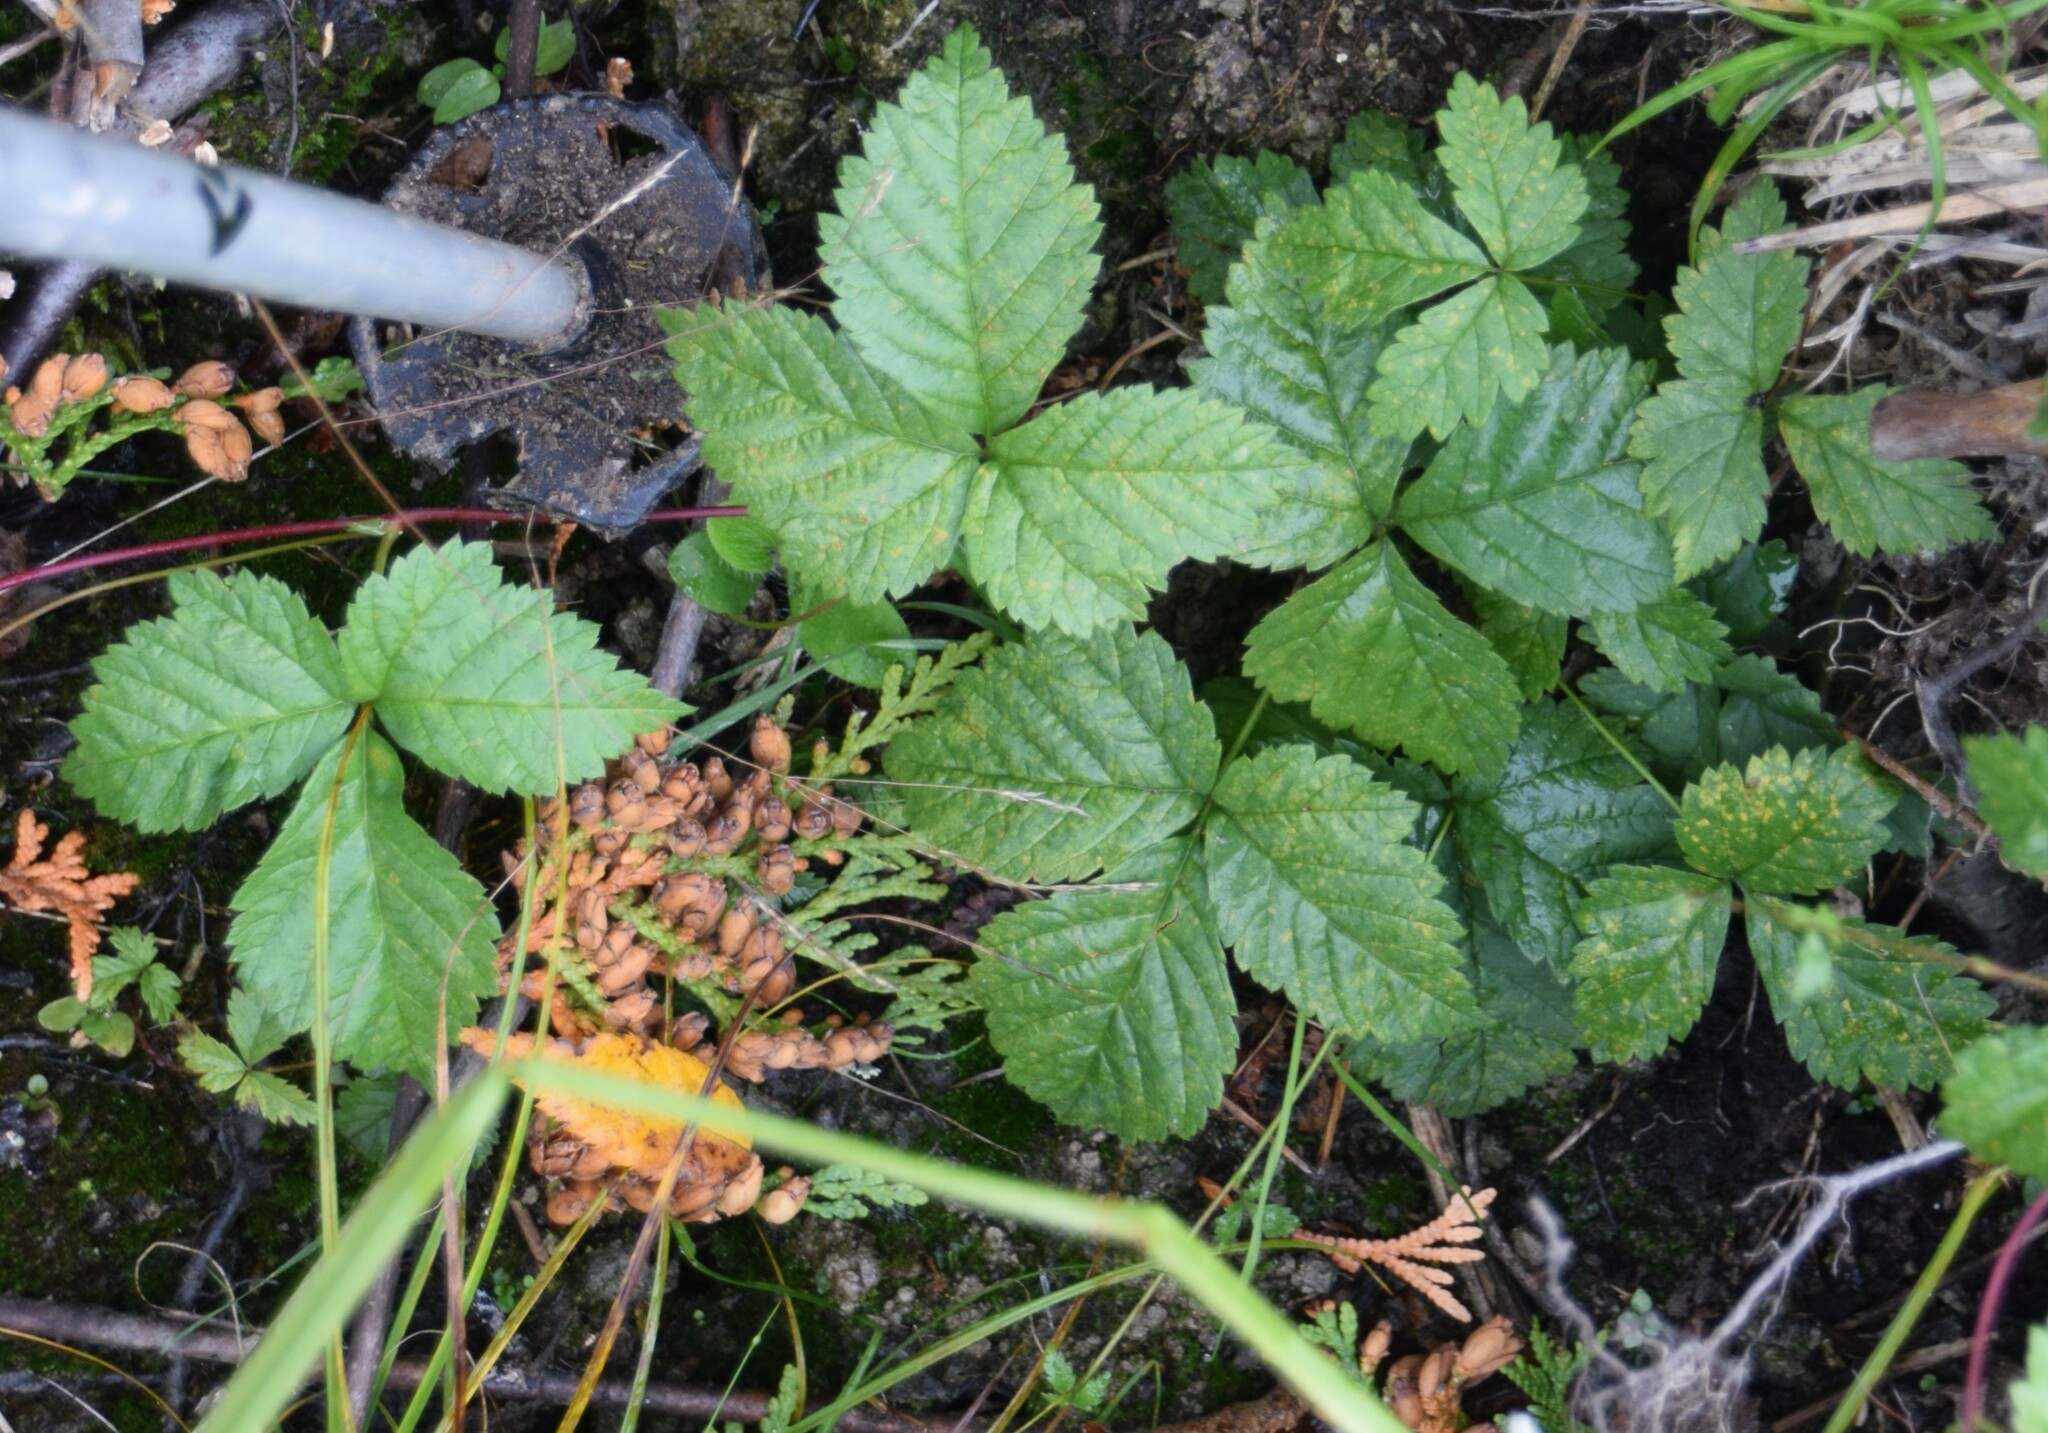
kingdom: Plantae
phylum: Tracheophyta
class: Magnoliopsida
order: Rosales
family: Rosaceae
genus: Rubus
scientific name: Rubus pubescens
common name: Dwarf raspberry
